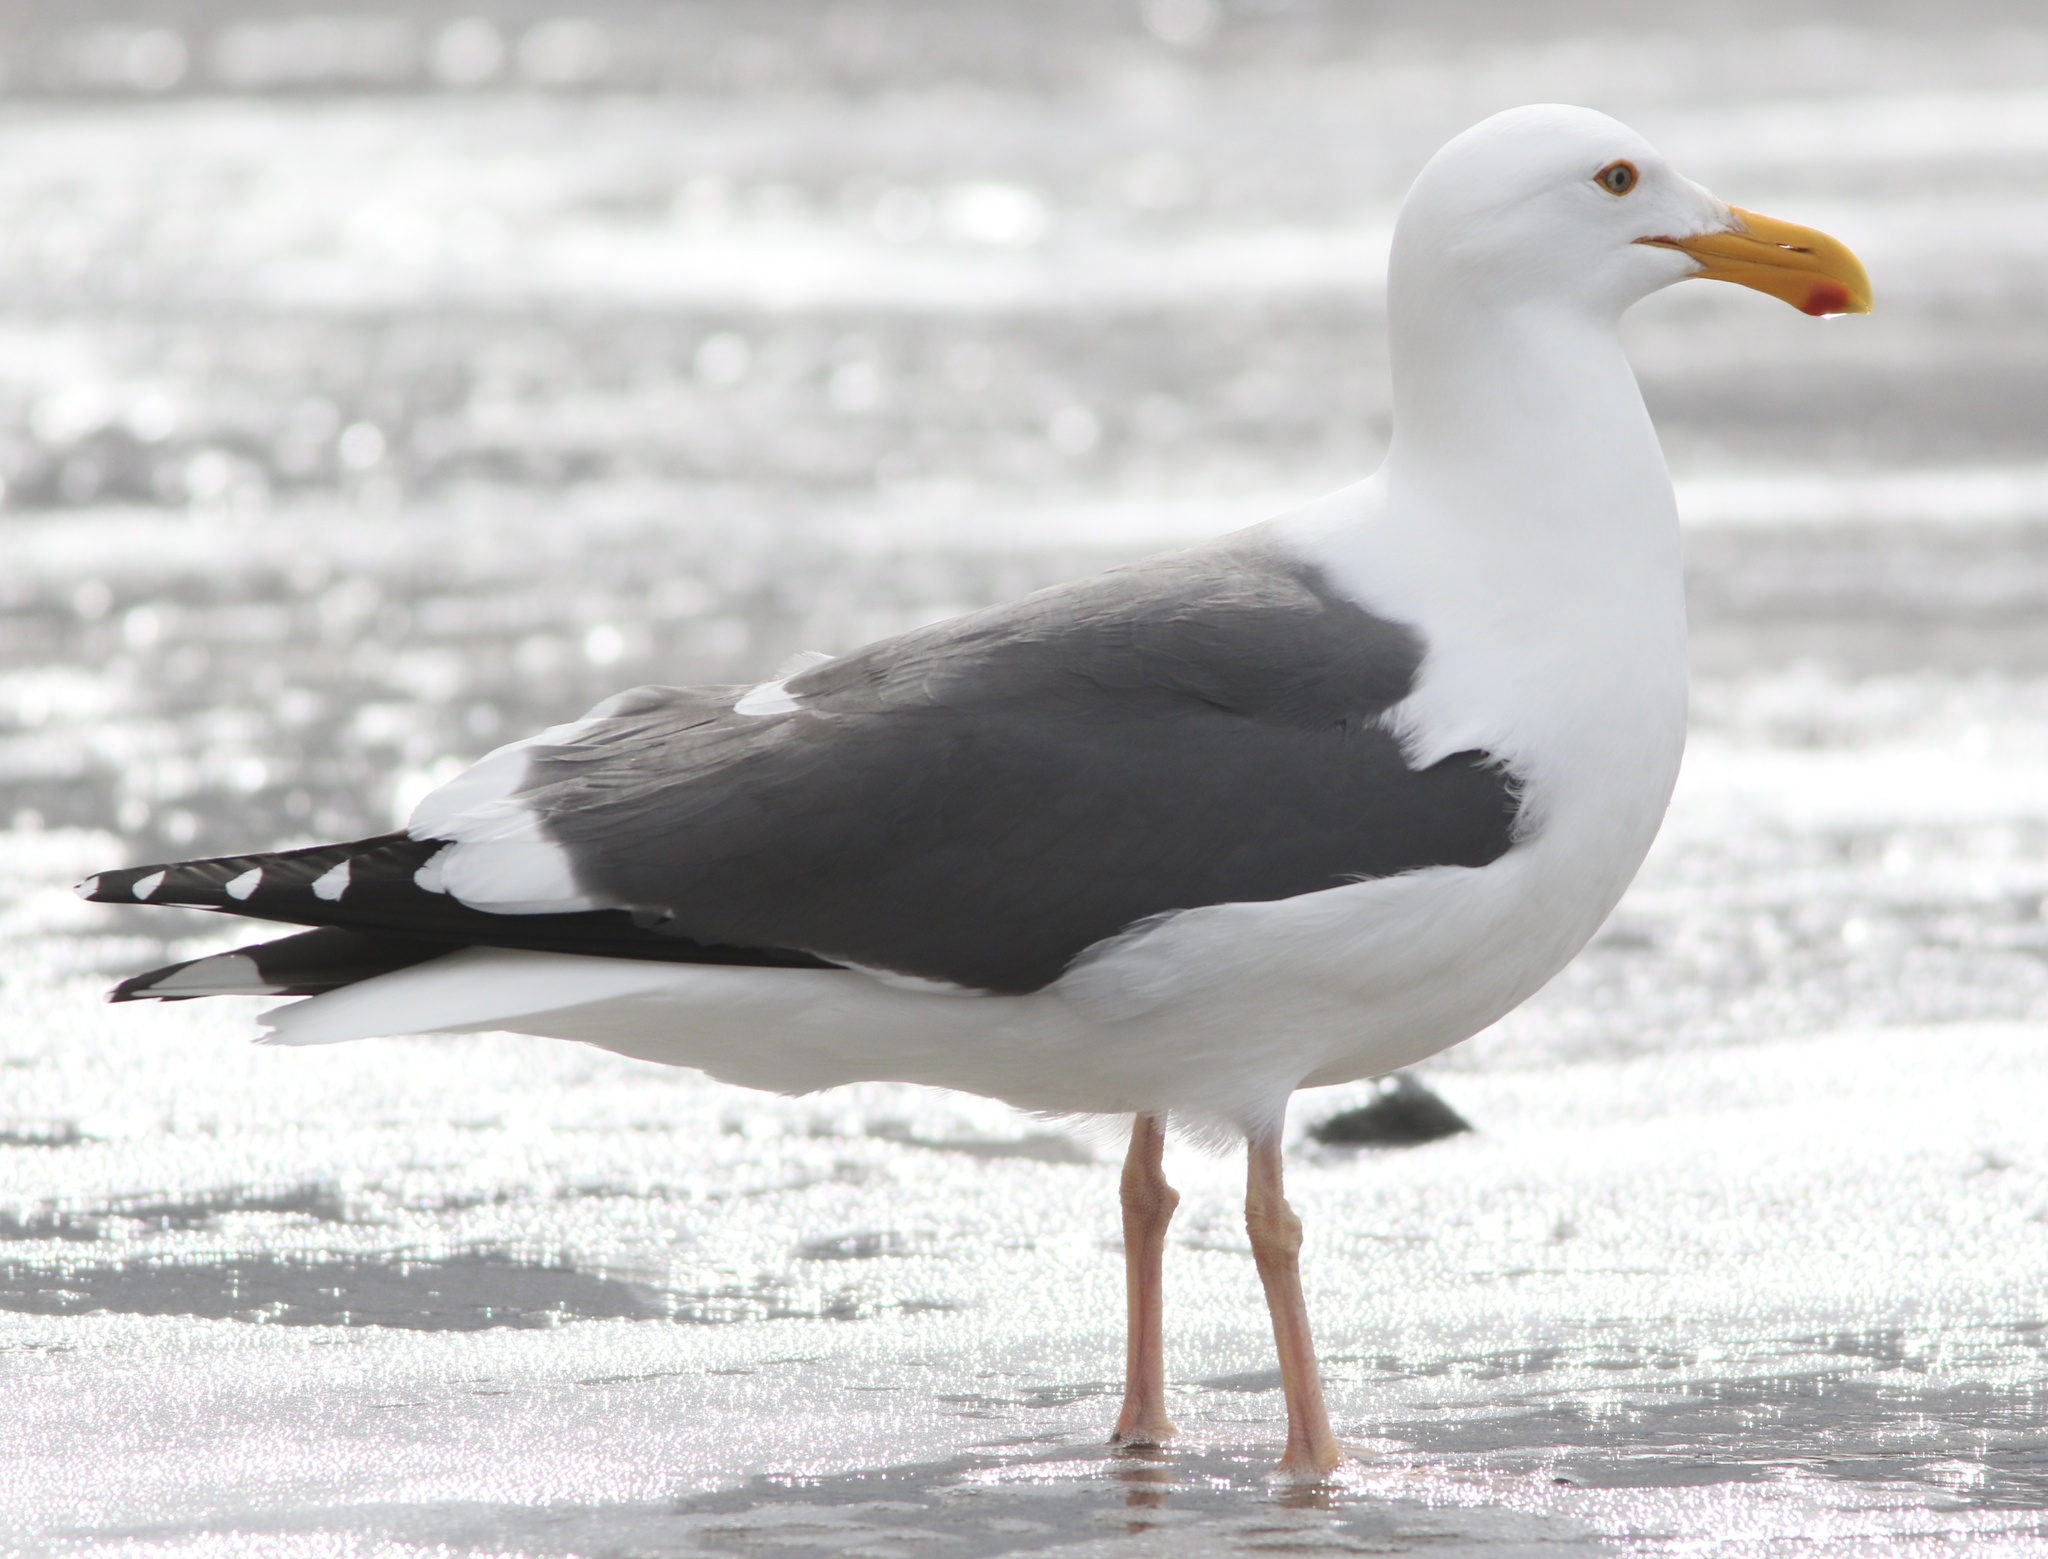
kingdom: Animalia
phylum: Chordata
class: Aves
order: Charadriiformes
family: Laridae
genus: Larus
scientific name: Larus occidentalis
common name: Western gull
